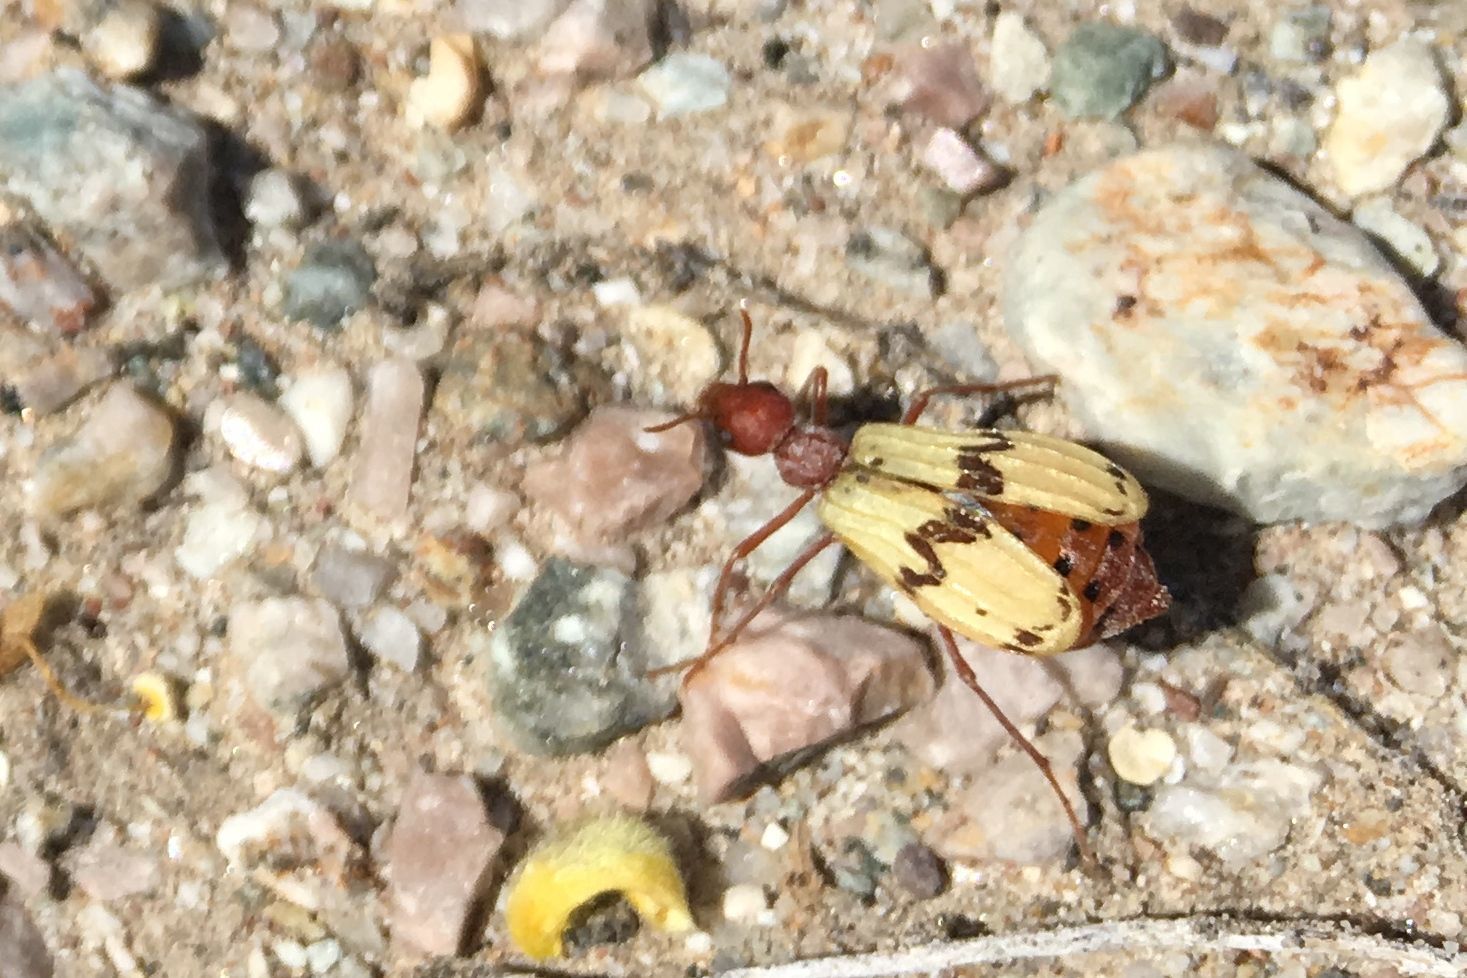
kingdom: Animalia
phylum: Arthropoda
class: Insecta
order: Coleoptera
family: Meloidae
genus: Pleuropasta
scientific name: Pleuropasta mirabilis
